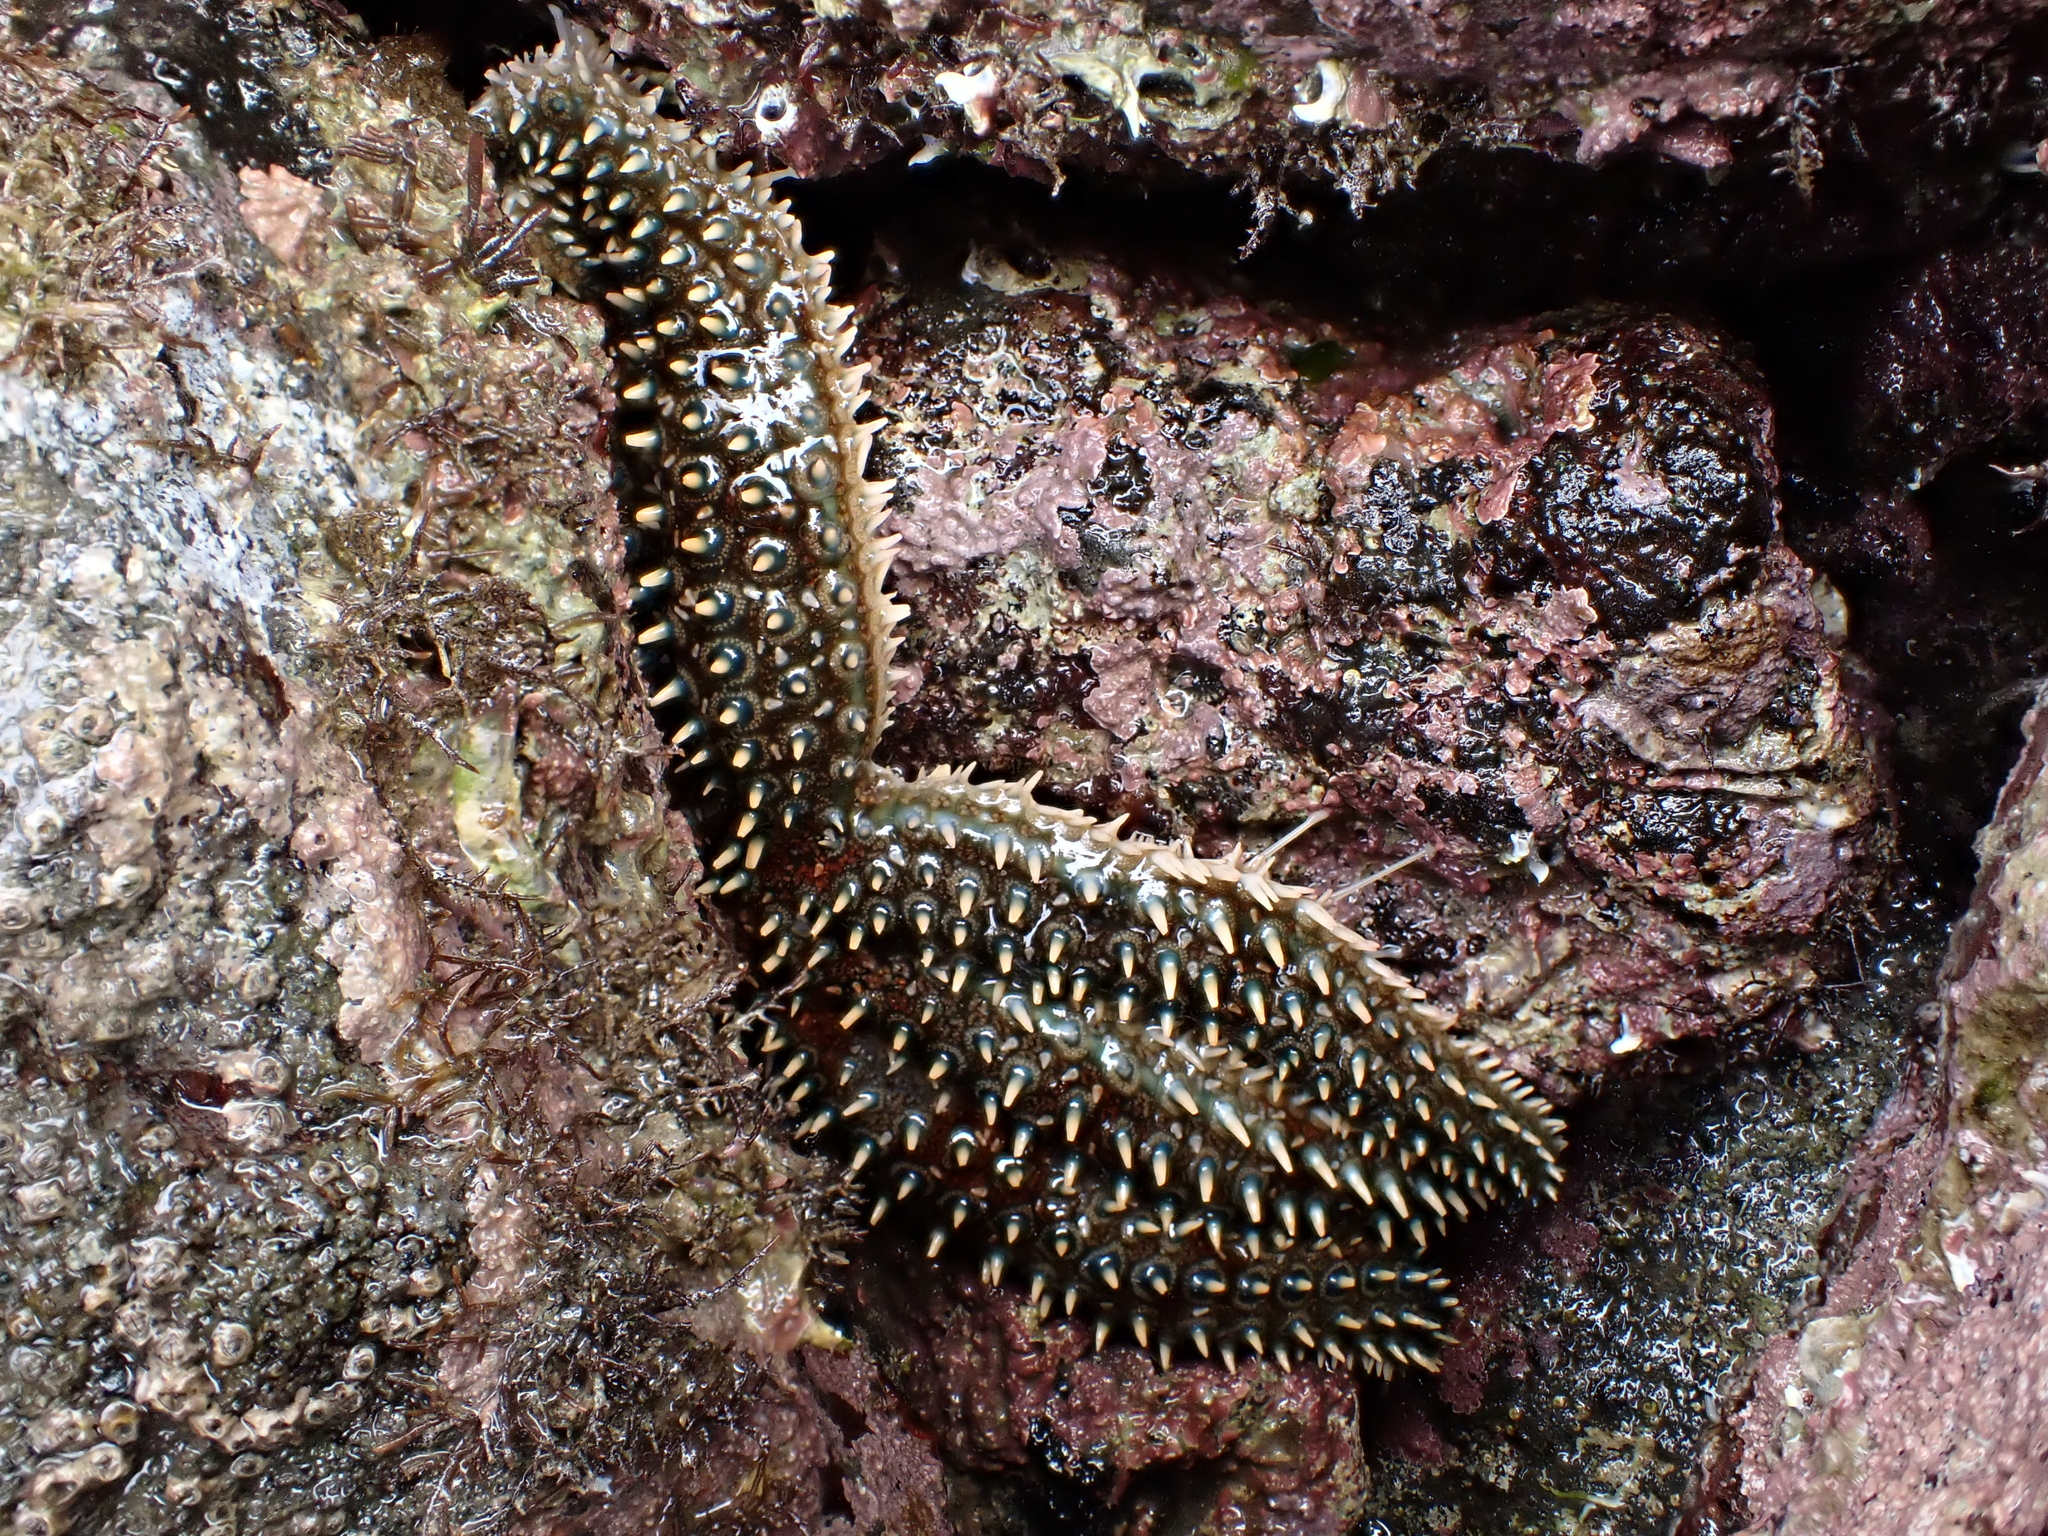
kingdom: Animalia
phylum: Echinodermata
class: Asteroidea
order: Forcipulatida
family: Asteriidae
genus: Coscinasterias
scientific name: Coscinasterias muricata
